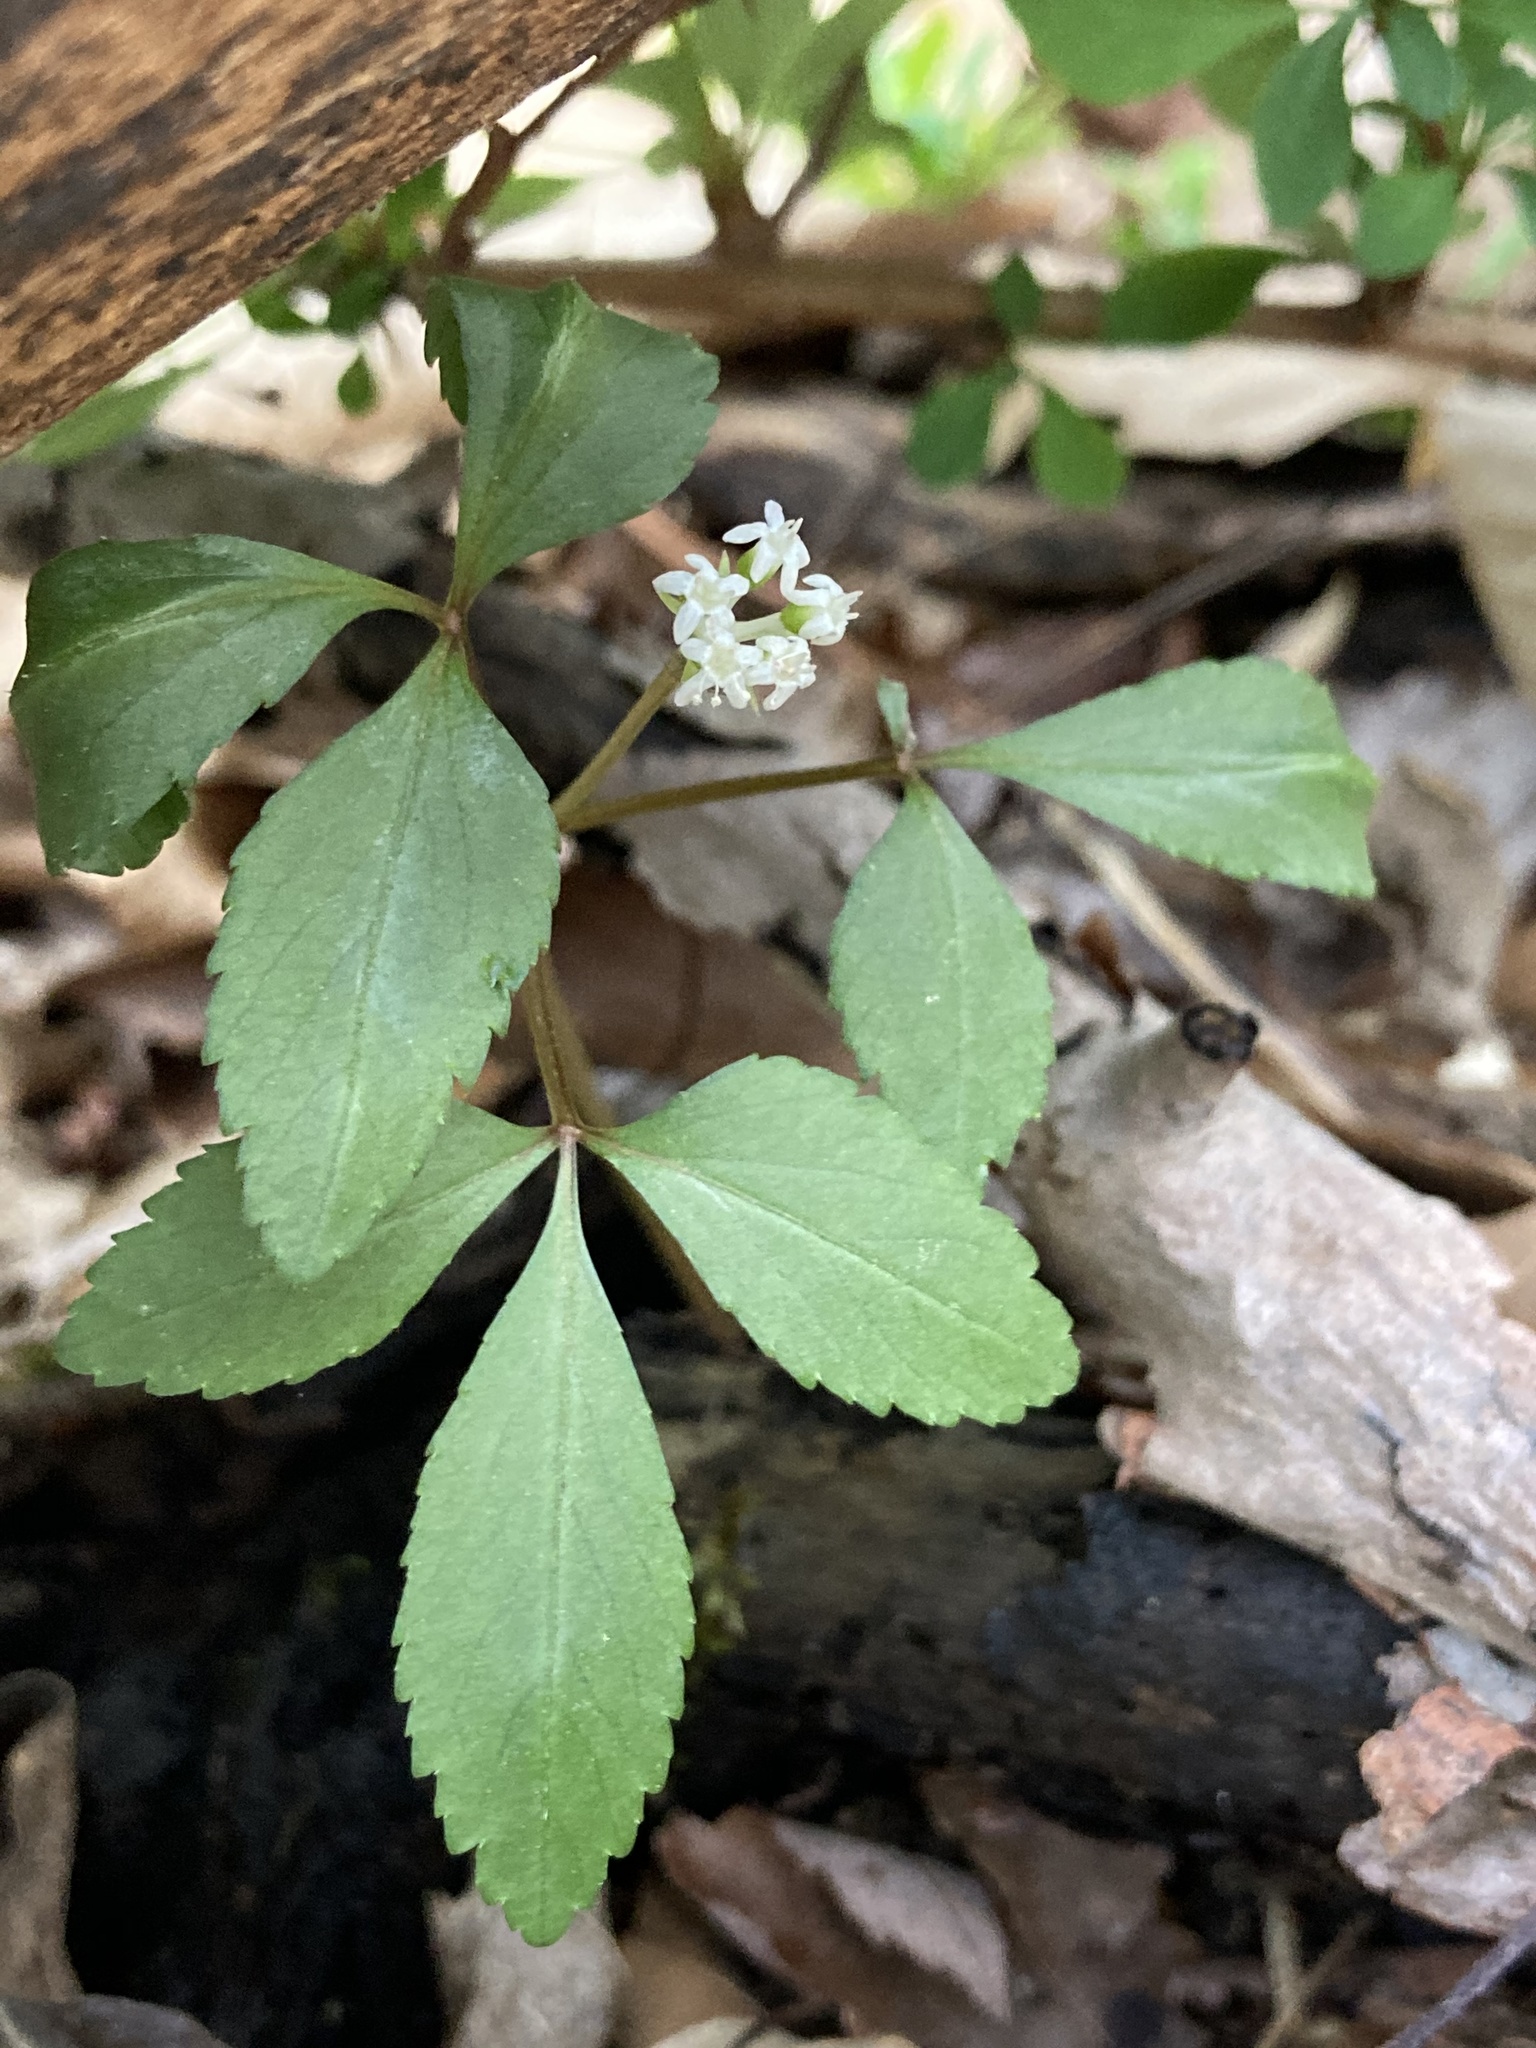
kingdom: Plantae
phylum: Tracheophyta
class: Magnoliopsida
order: Apiales
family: Araliaceae
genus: Panax
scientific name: Panax trifolius
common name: Dwarf ginseng
